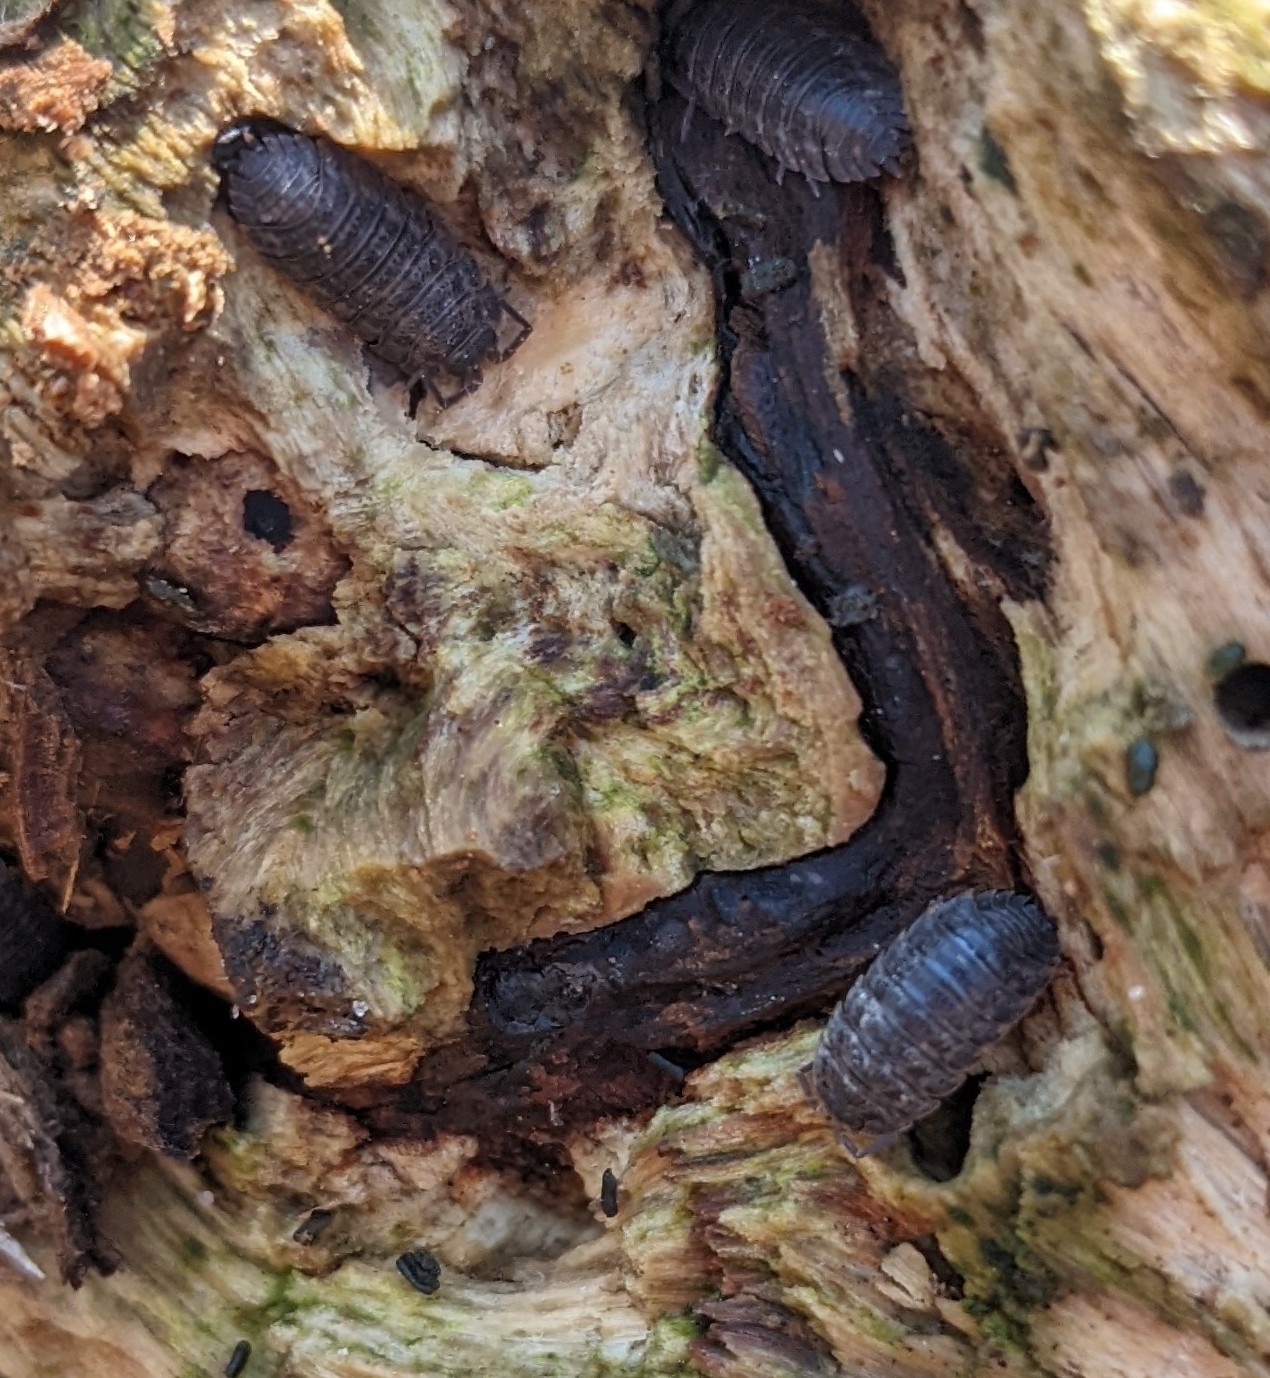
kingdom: Animalia
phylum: Arthropoda
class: Malacostraca
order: Isopoda
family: Trachelipodidae
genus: Trachelipus
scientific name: Trachelipus rathkii
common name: Isopod
